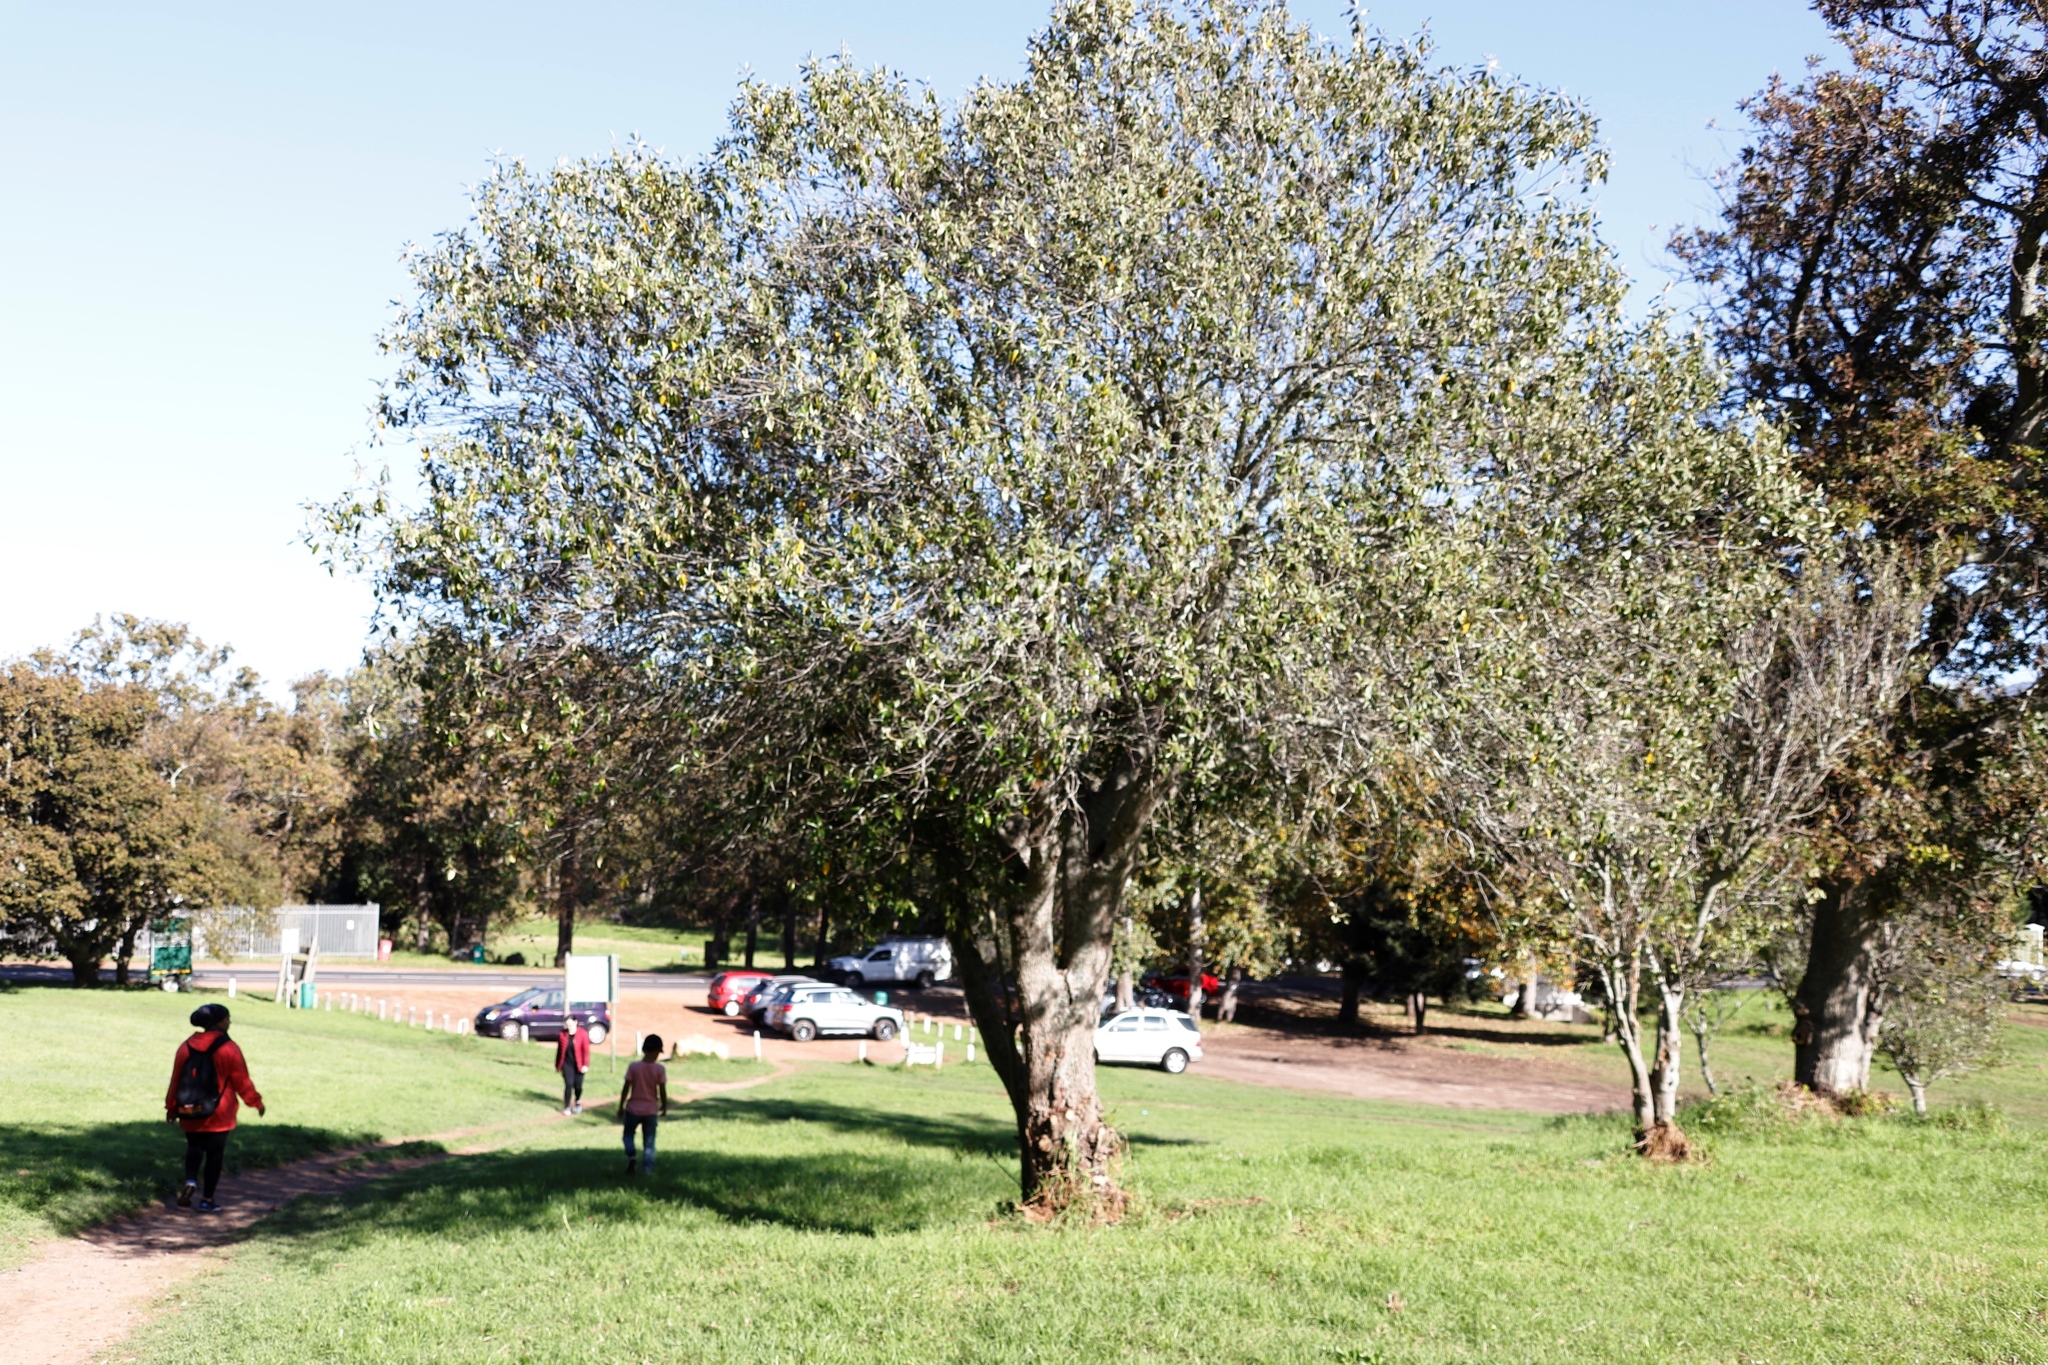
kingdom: Plantae
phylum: Tracheophyta
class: Magnoliopsida
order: Malpighiales
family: Achariaceae
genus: Kiggelaria
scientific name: Kiggelaria africana
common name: Wild peach
